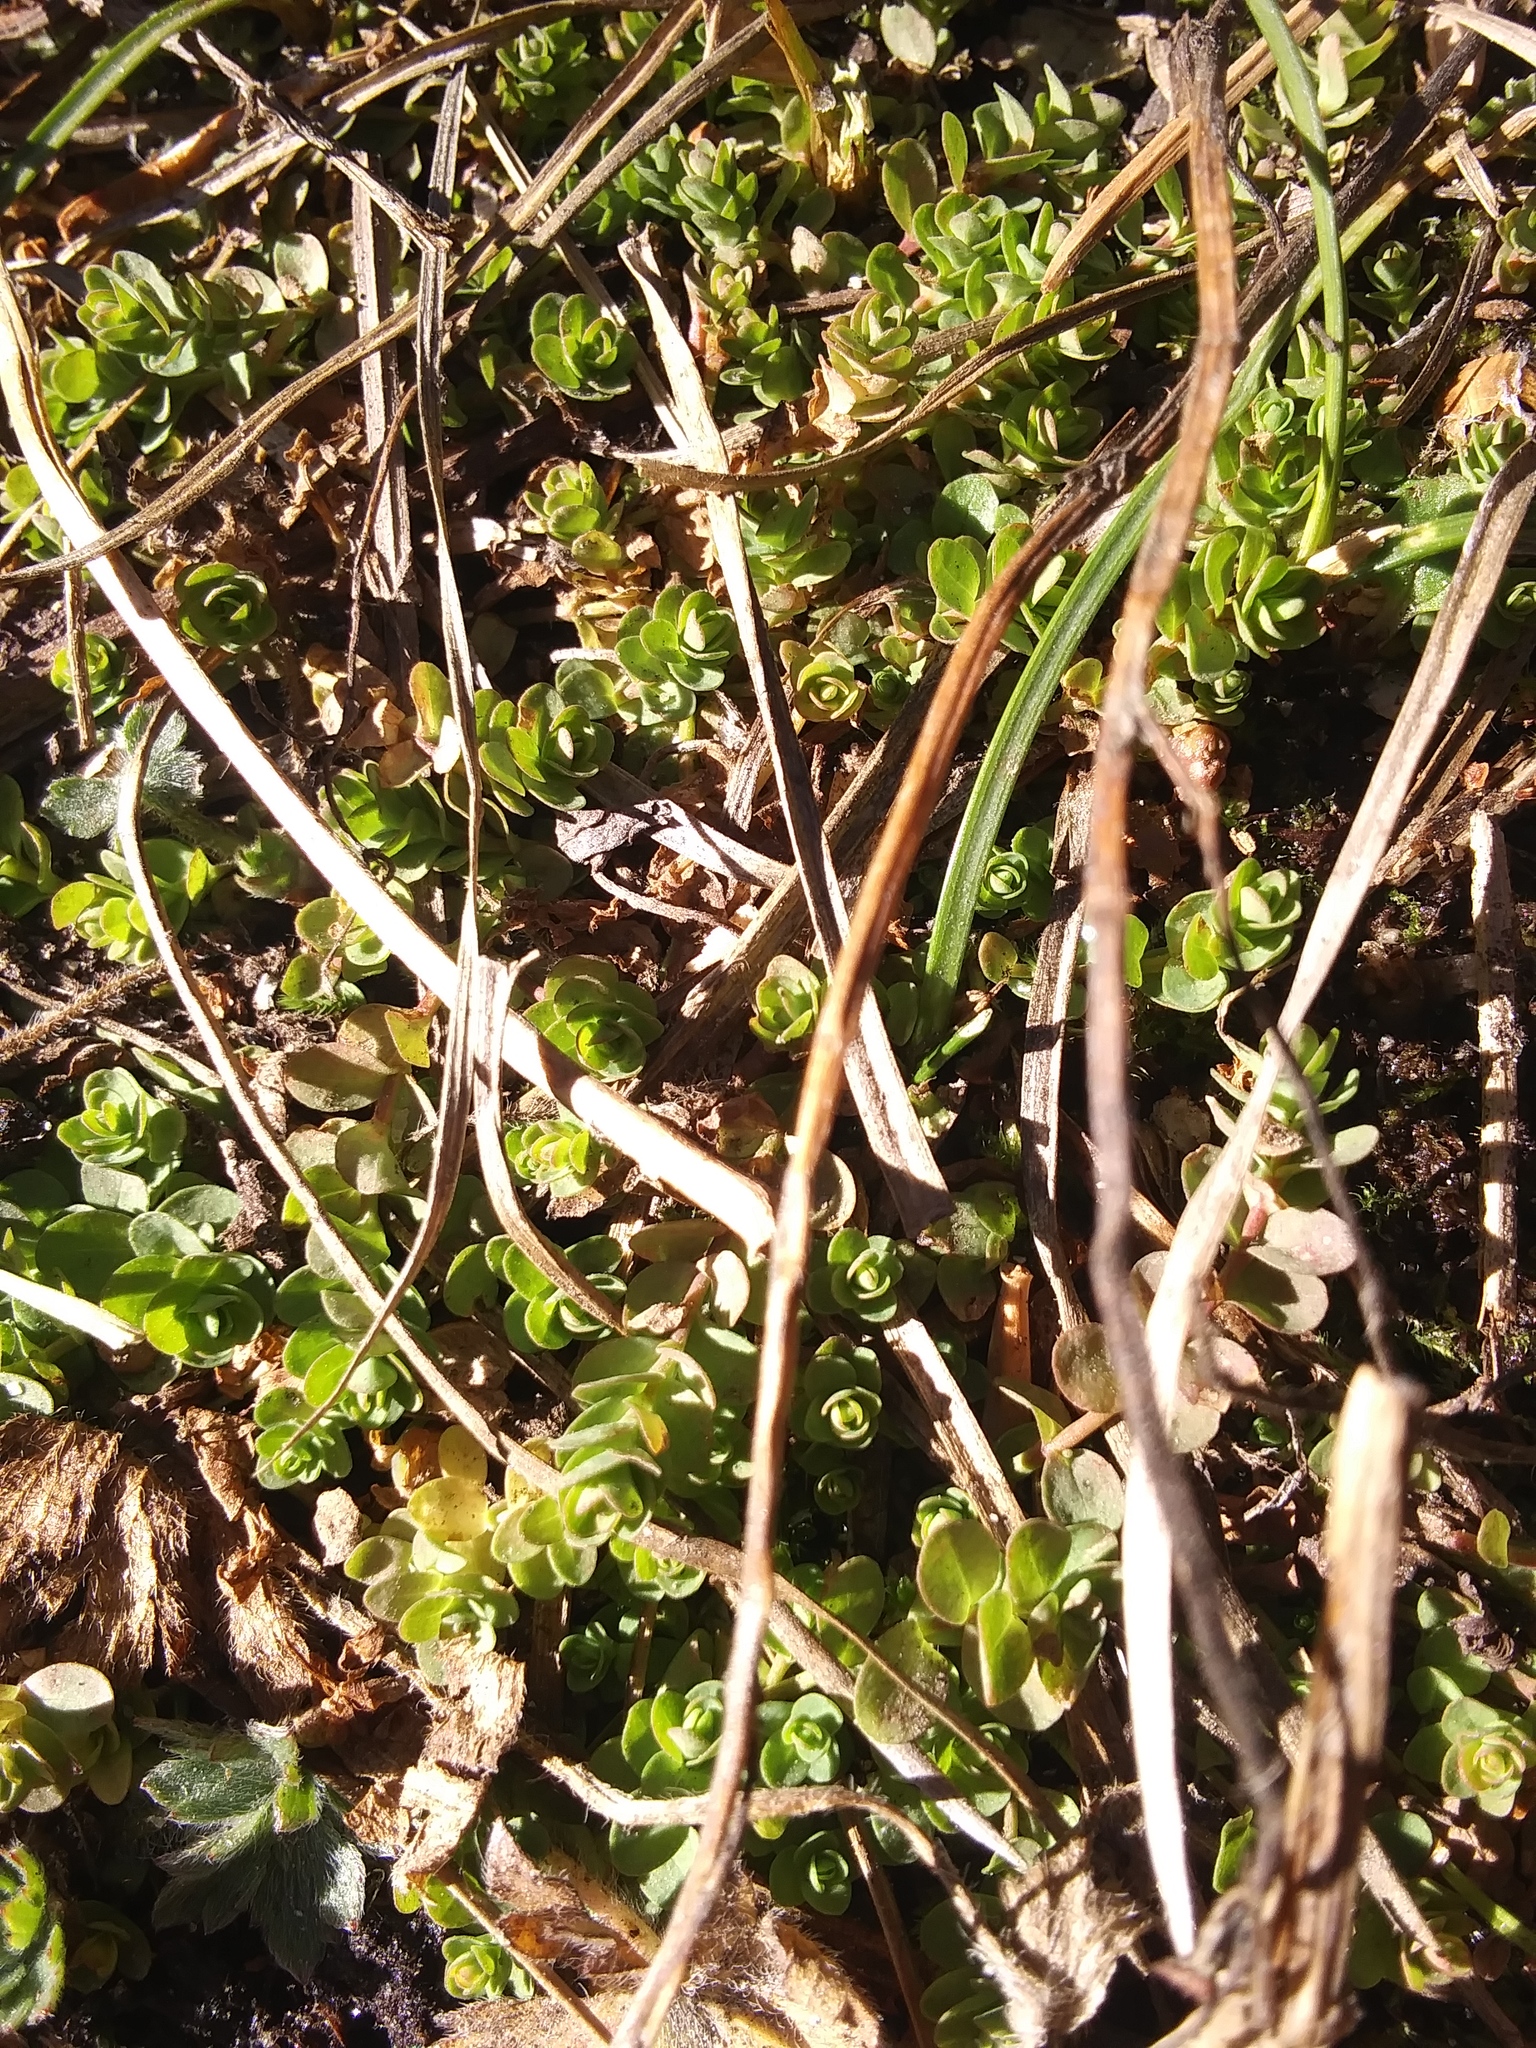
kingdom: Plantae
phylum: Tracheophyta
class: Magnoliopsida
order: Malpighiales
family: Hypericaceae
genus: Hypericum
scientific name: Hypericum anagalloides
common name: Bog st. john's-wort
